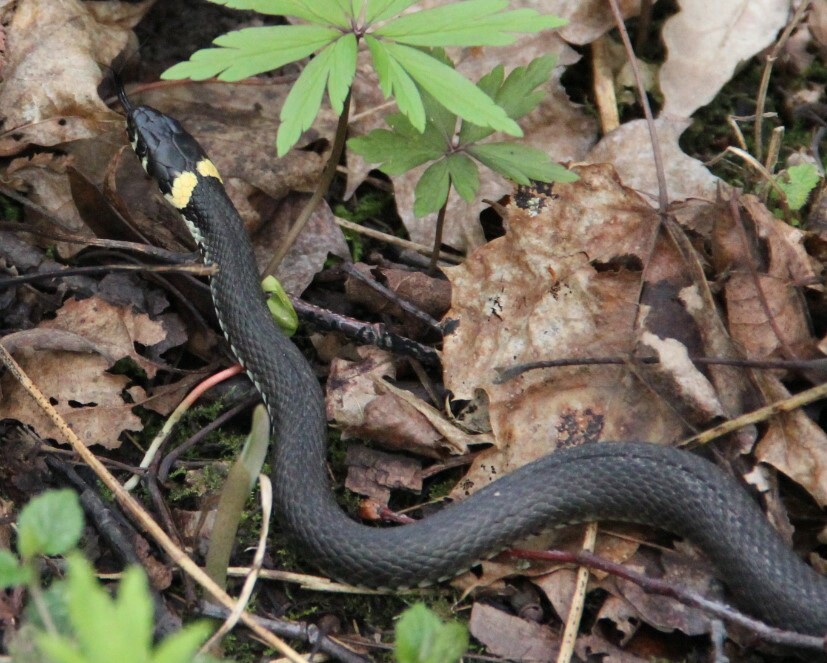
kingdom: Animalia
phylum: Chordata
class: Squamata
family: Colubridae
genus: Natrix
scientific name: Natrix natrix
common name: Grass snake
